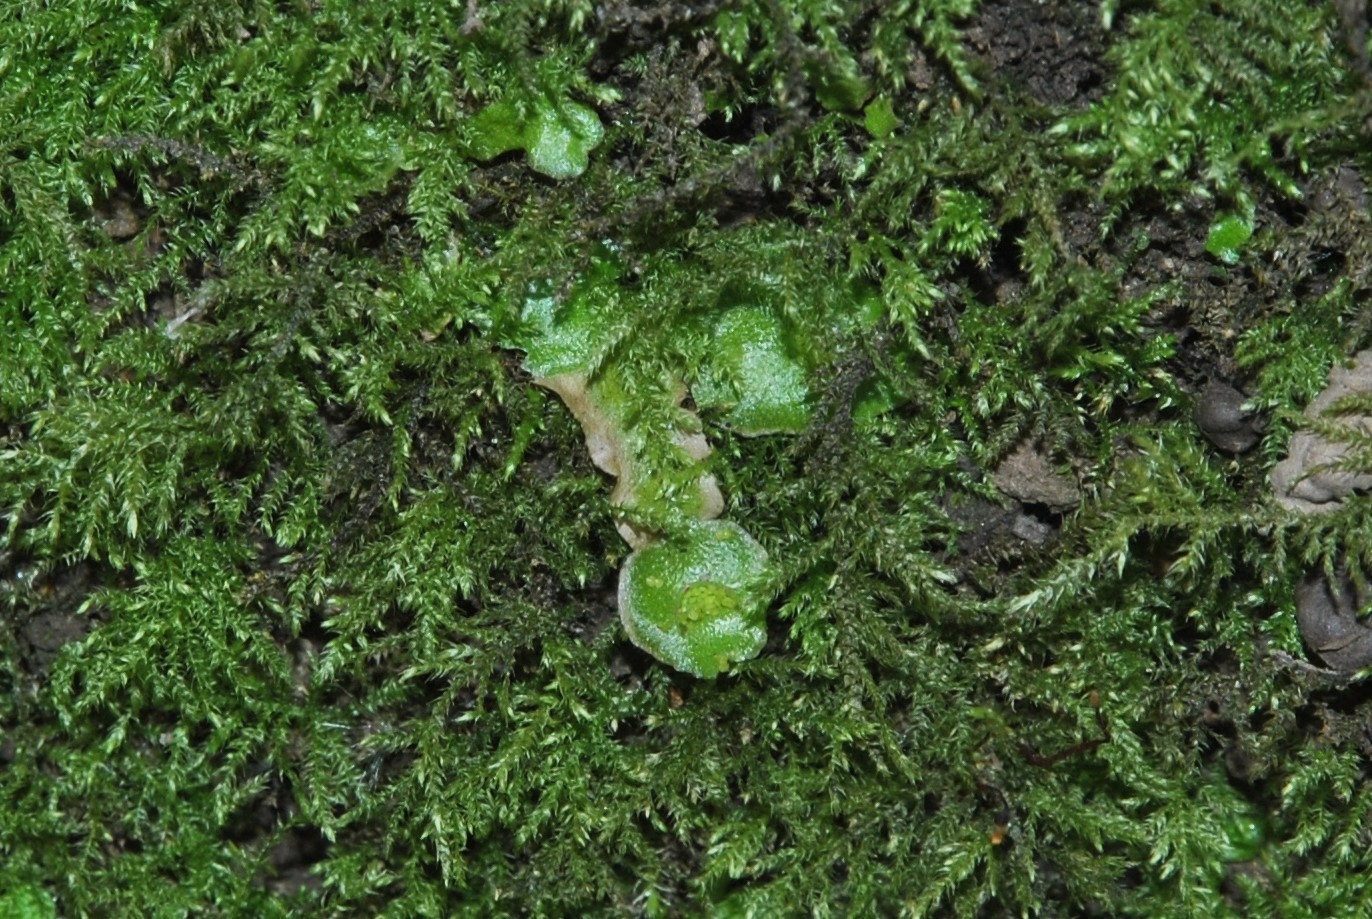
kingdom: Plantae
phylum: Marchantiophyta
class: Marchantiopsida
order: Lunulariales
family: Lunulariaceae
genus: Lunularia
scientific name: Lunularia cruciata
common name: Crescent-cup liverwort
